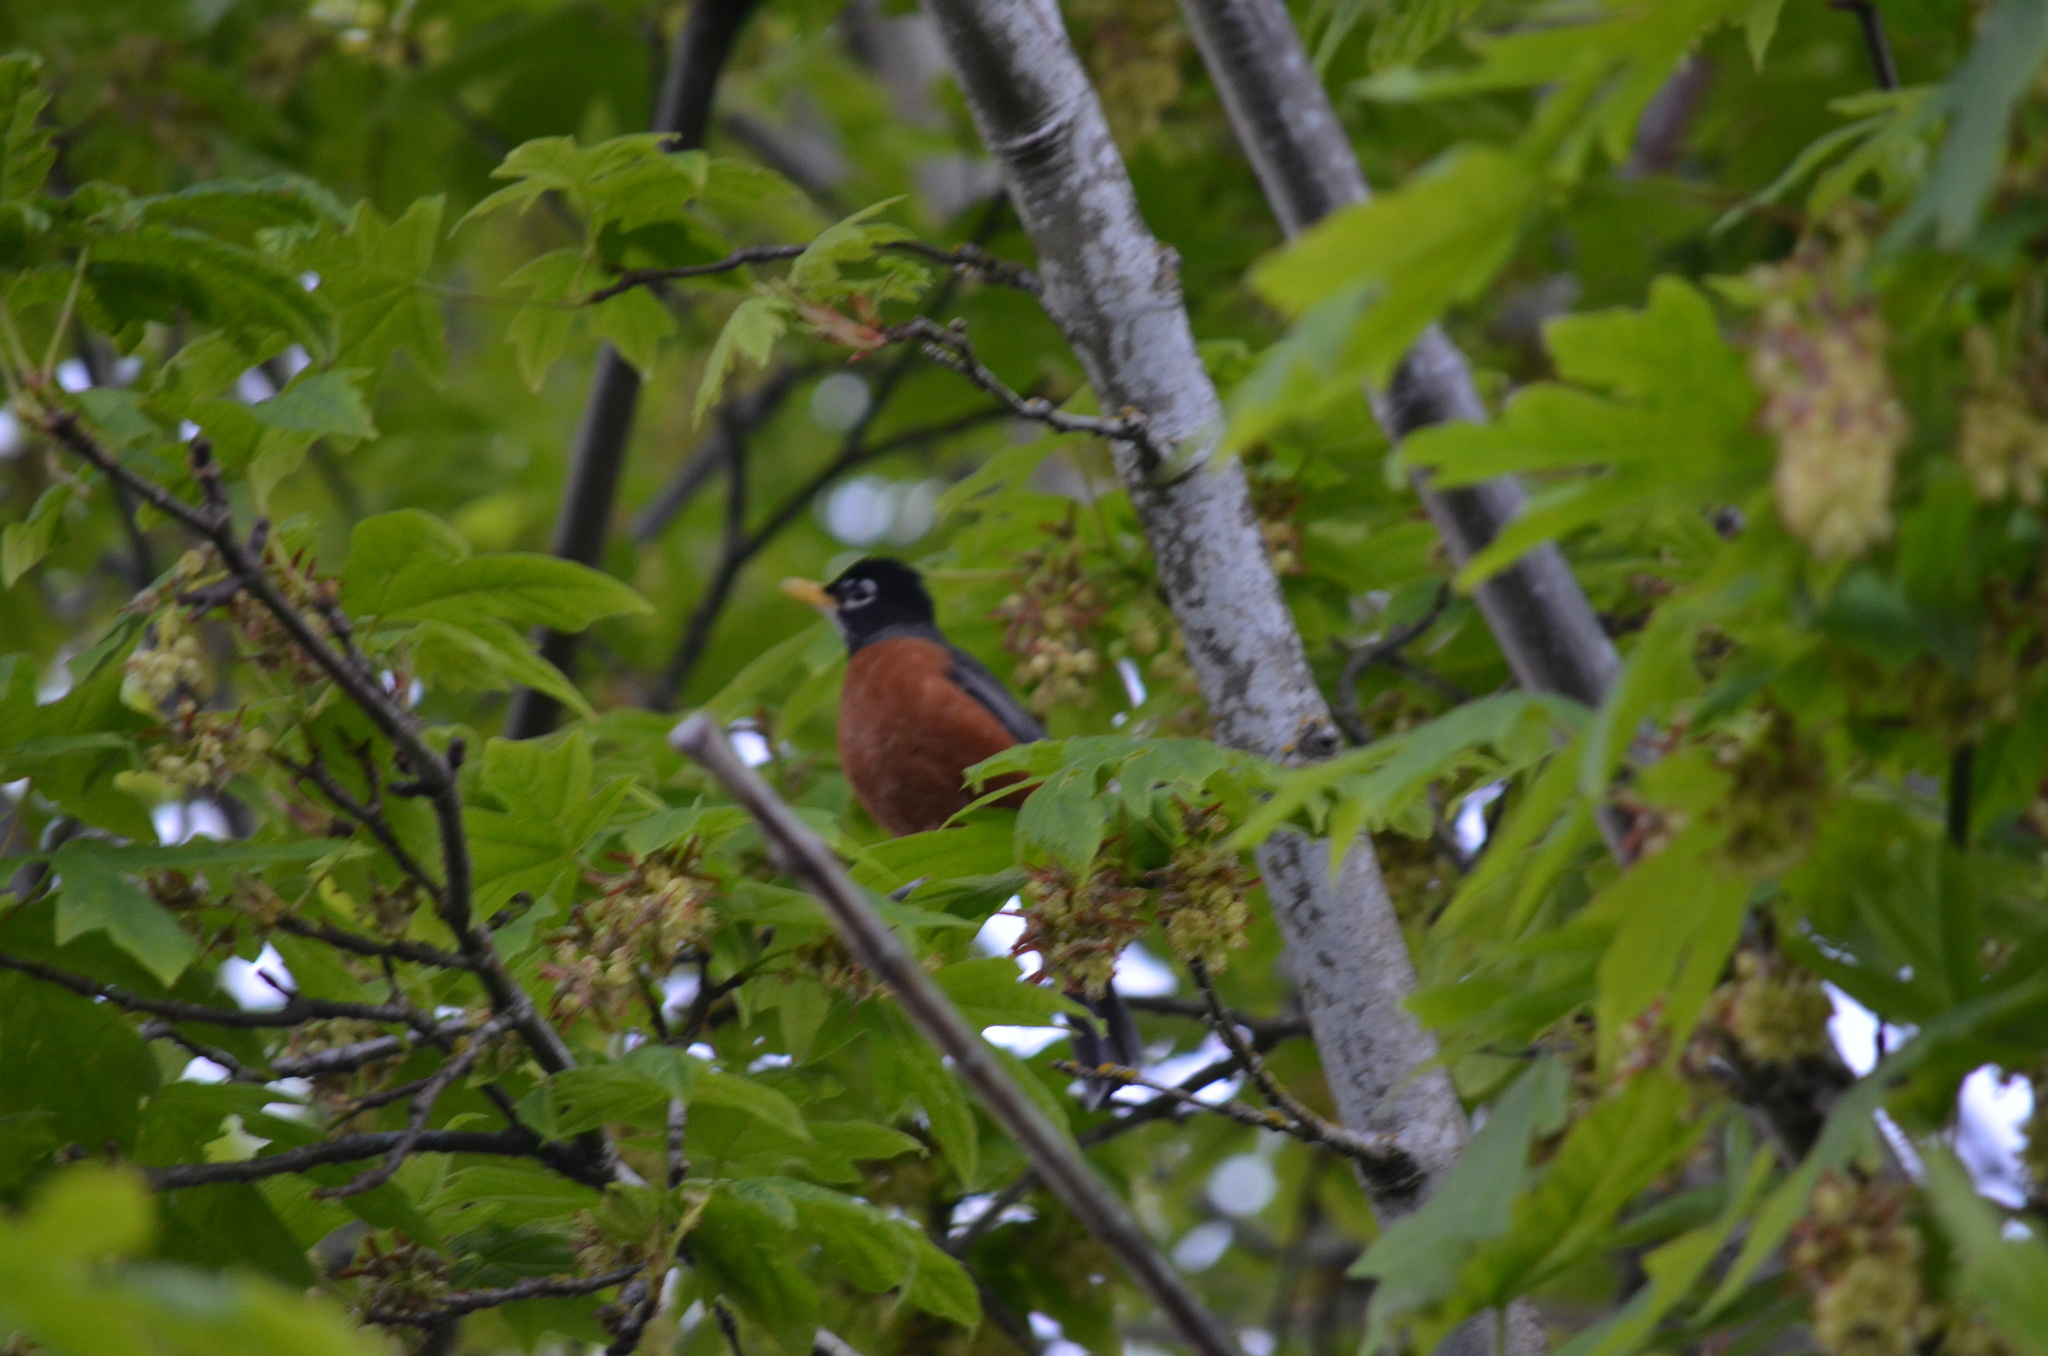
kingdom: Animalia
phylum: Chordata
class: Aves
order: Passeriformes
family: Turdidae
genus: Turdus
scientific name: Turdus migratorius
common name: American robin
